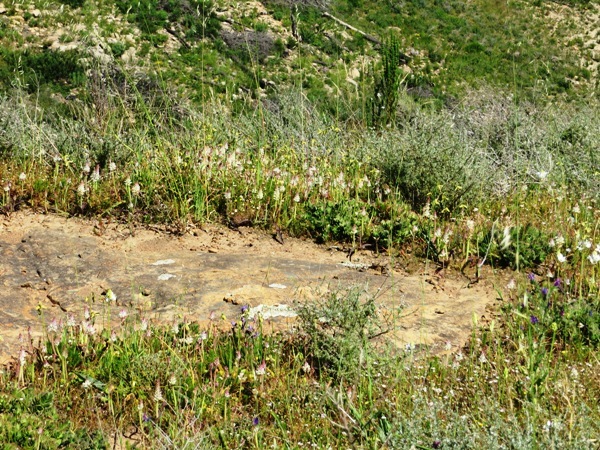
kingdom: Plantae
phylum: Tracheophyta
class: Liliopsida
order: Asparagales
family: Asparagaceae
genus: Lachenalia
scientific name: Lachenalia pallida
